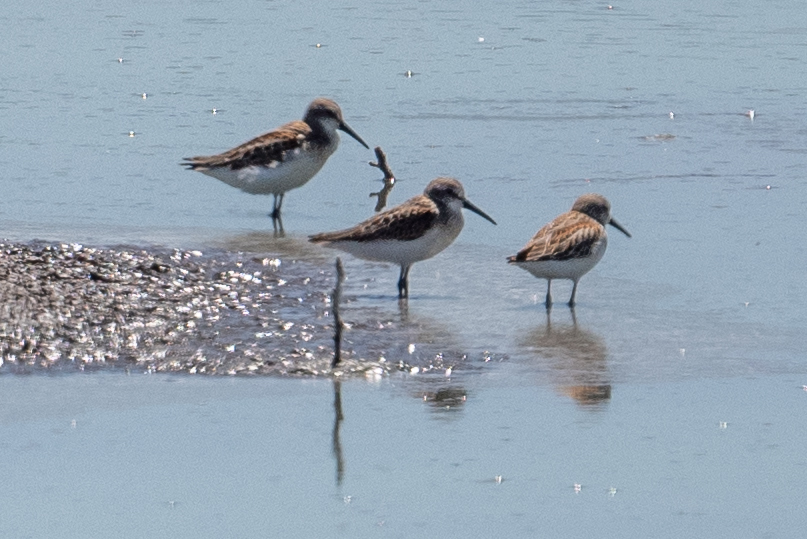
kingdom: Animalia
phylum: Chordata
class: Aves
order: Charadriiformes
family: Scolopacidae
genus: Calidris
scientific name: Calidris mauri
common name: Western sandpiper
